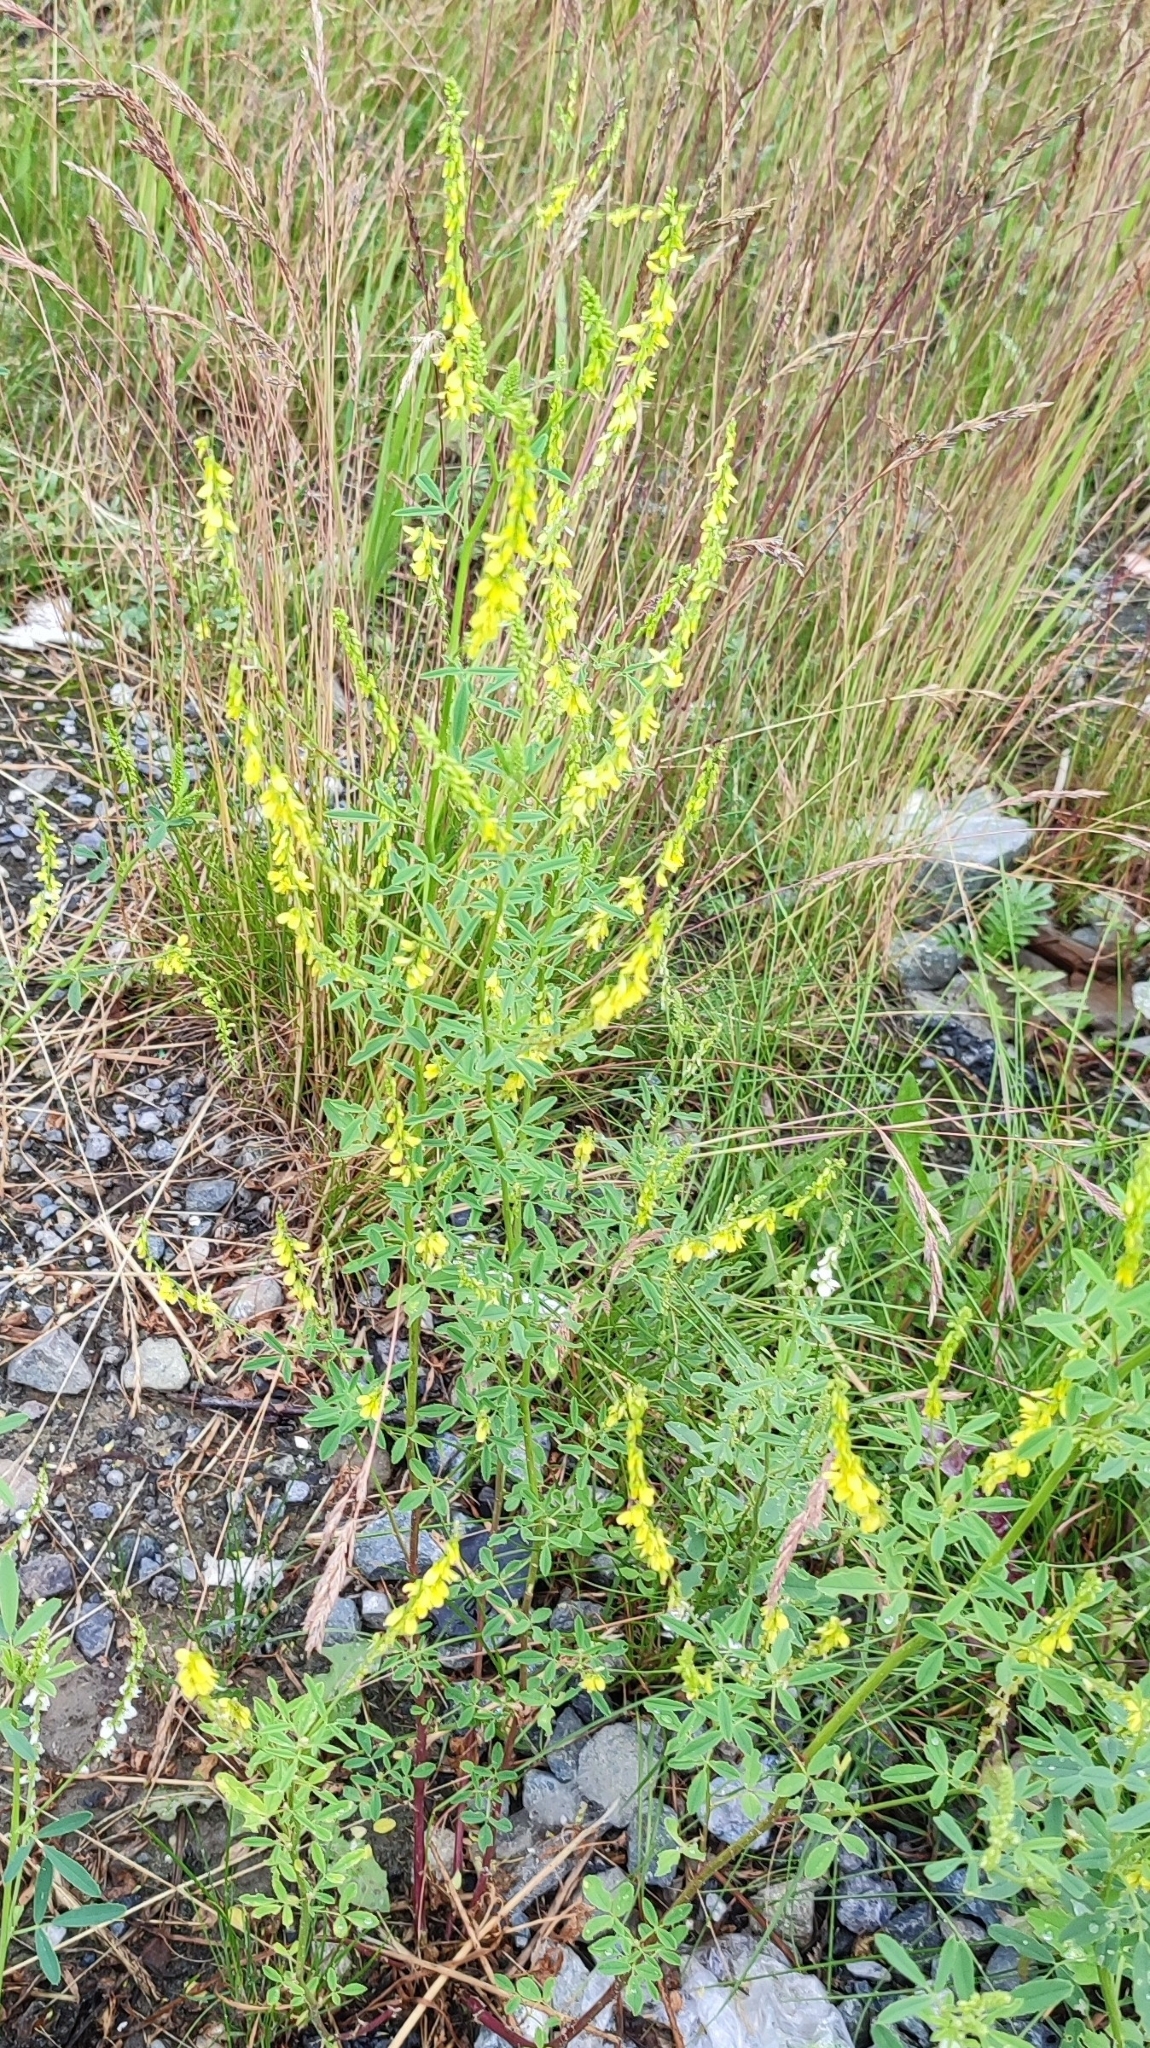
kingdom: Plantae
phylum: Tracheophyta
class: Magnoliopsida
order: Fabales
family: Fabaceae
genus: Melilotus
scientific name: Melilotus officinalis
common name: Sweetclover
